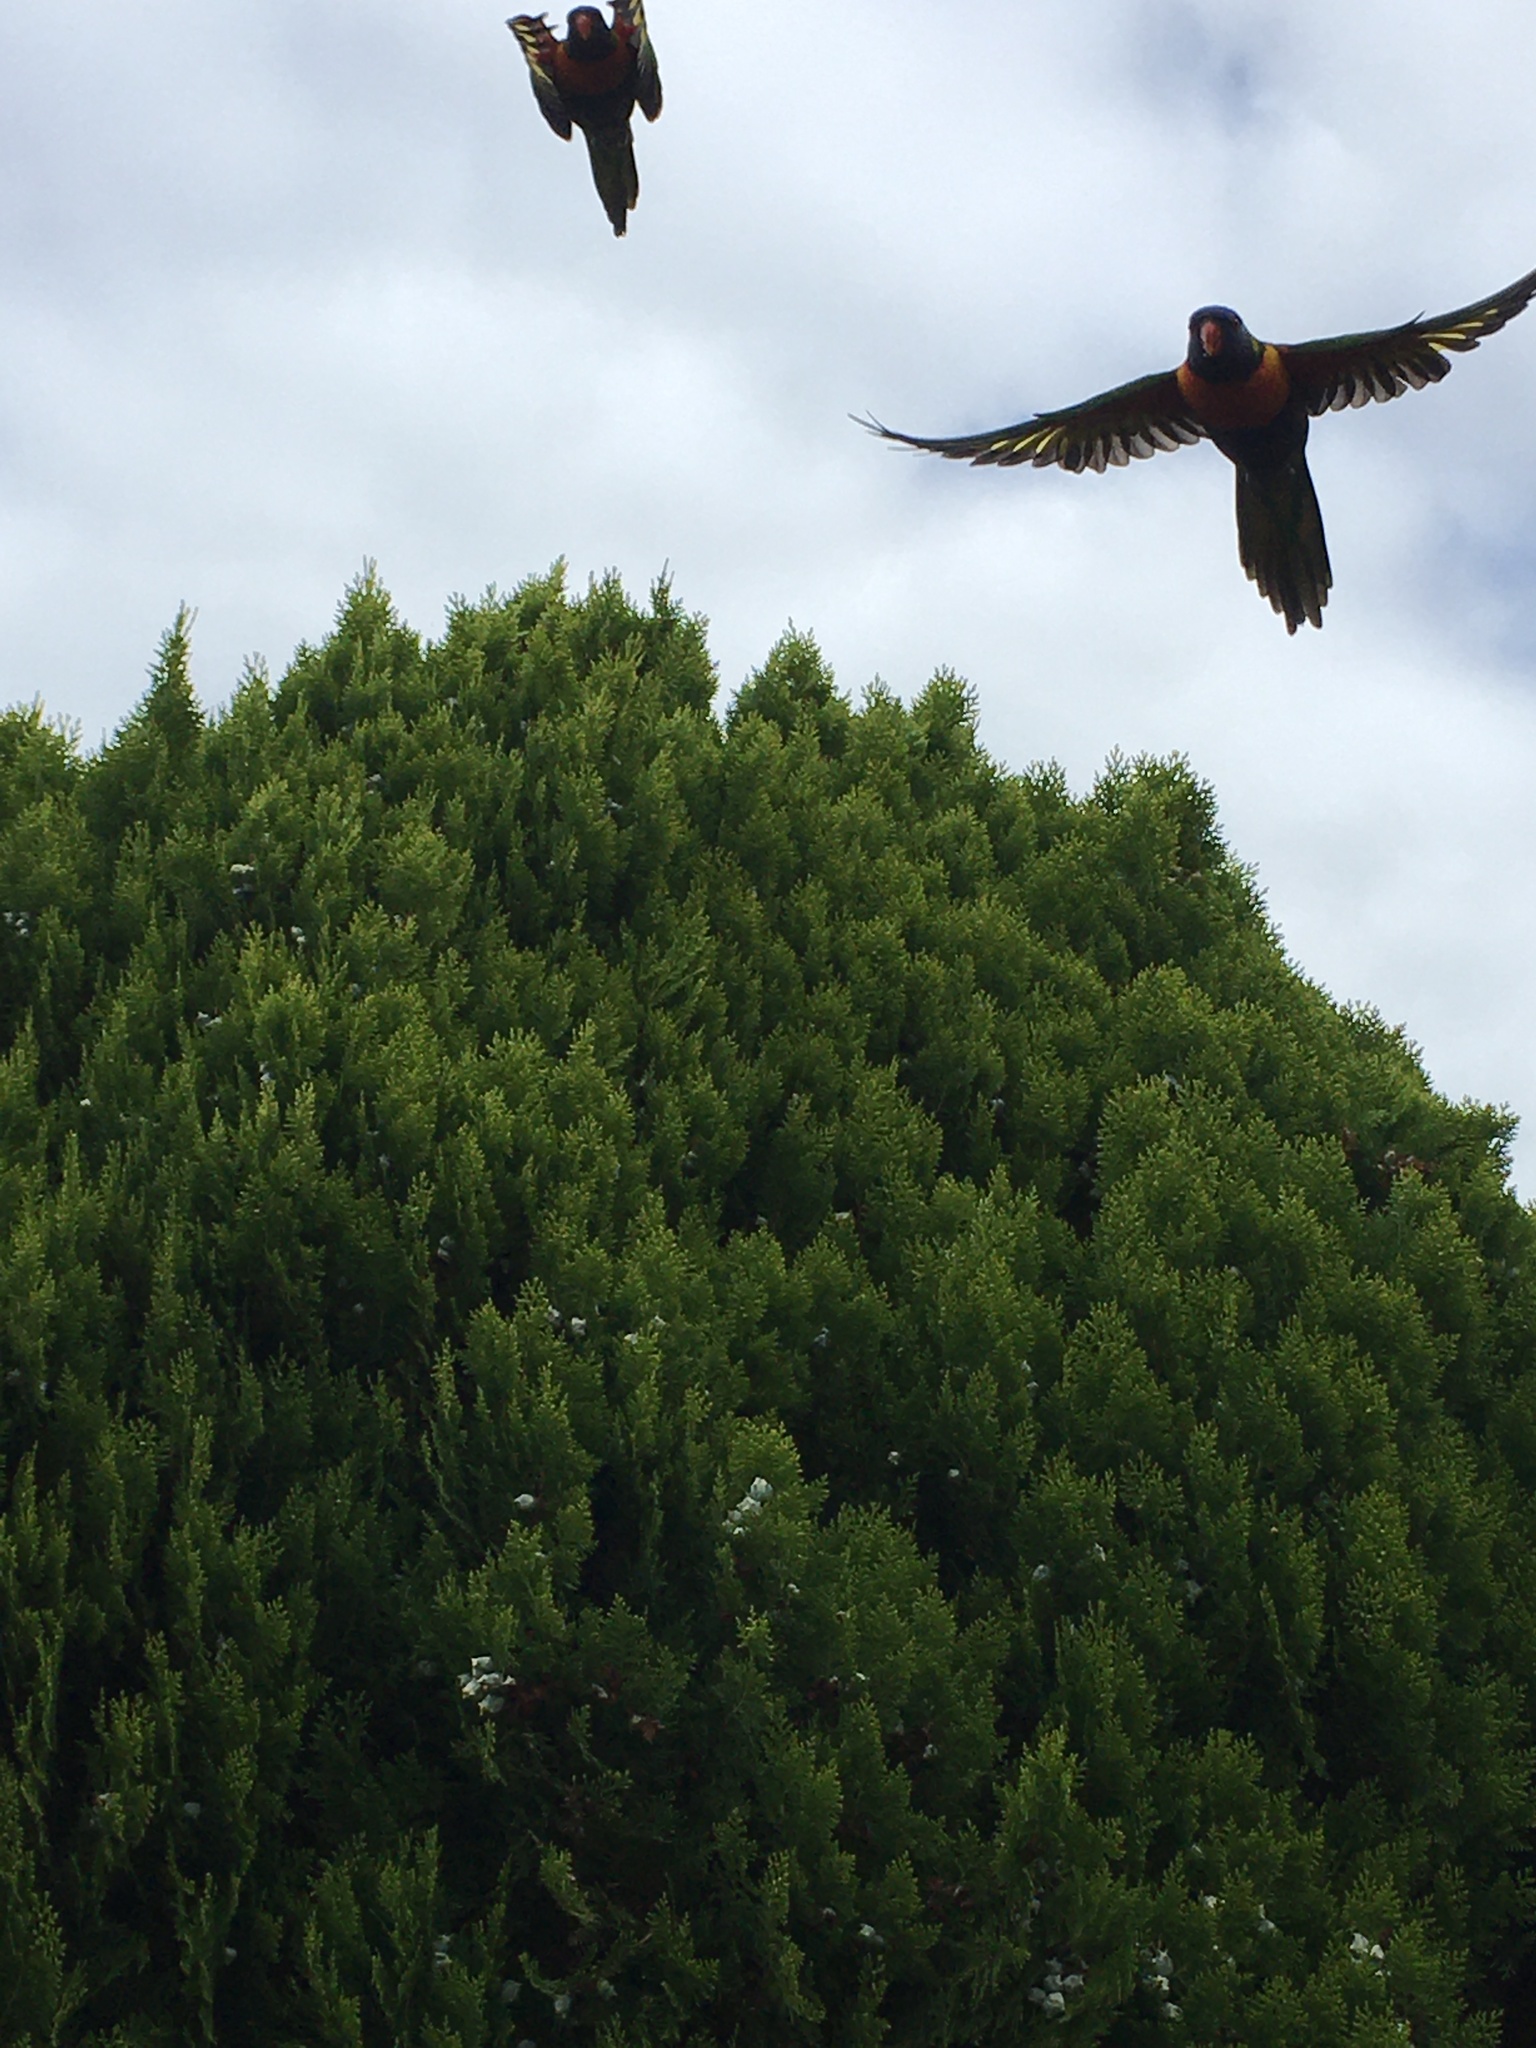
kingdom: Animalia
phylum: Chordata
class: Aves
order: Psittaciformes
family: Psittacidae
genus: Trichoglossus
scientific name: Trichoglossus haematodus
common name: Coconut lorikeet
